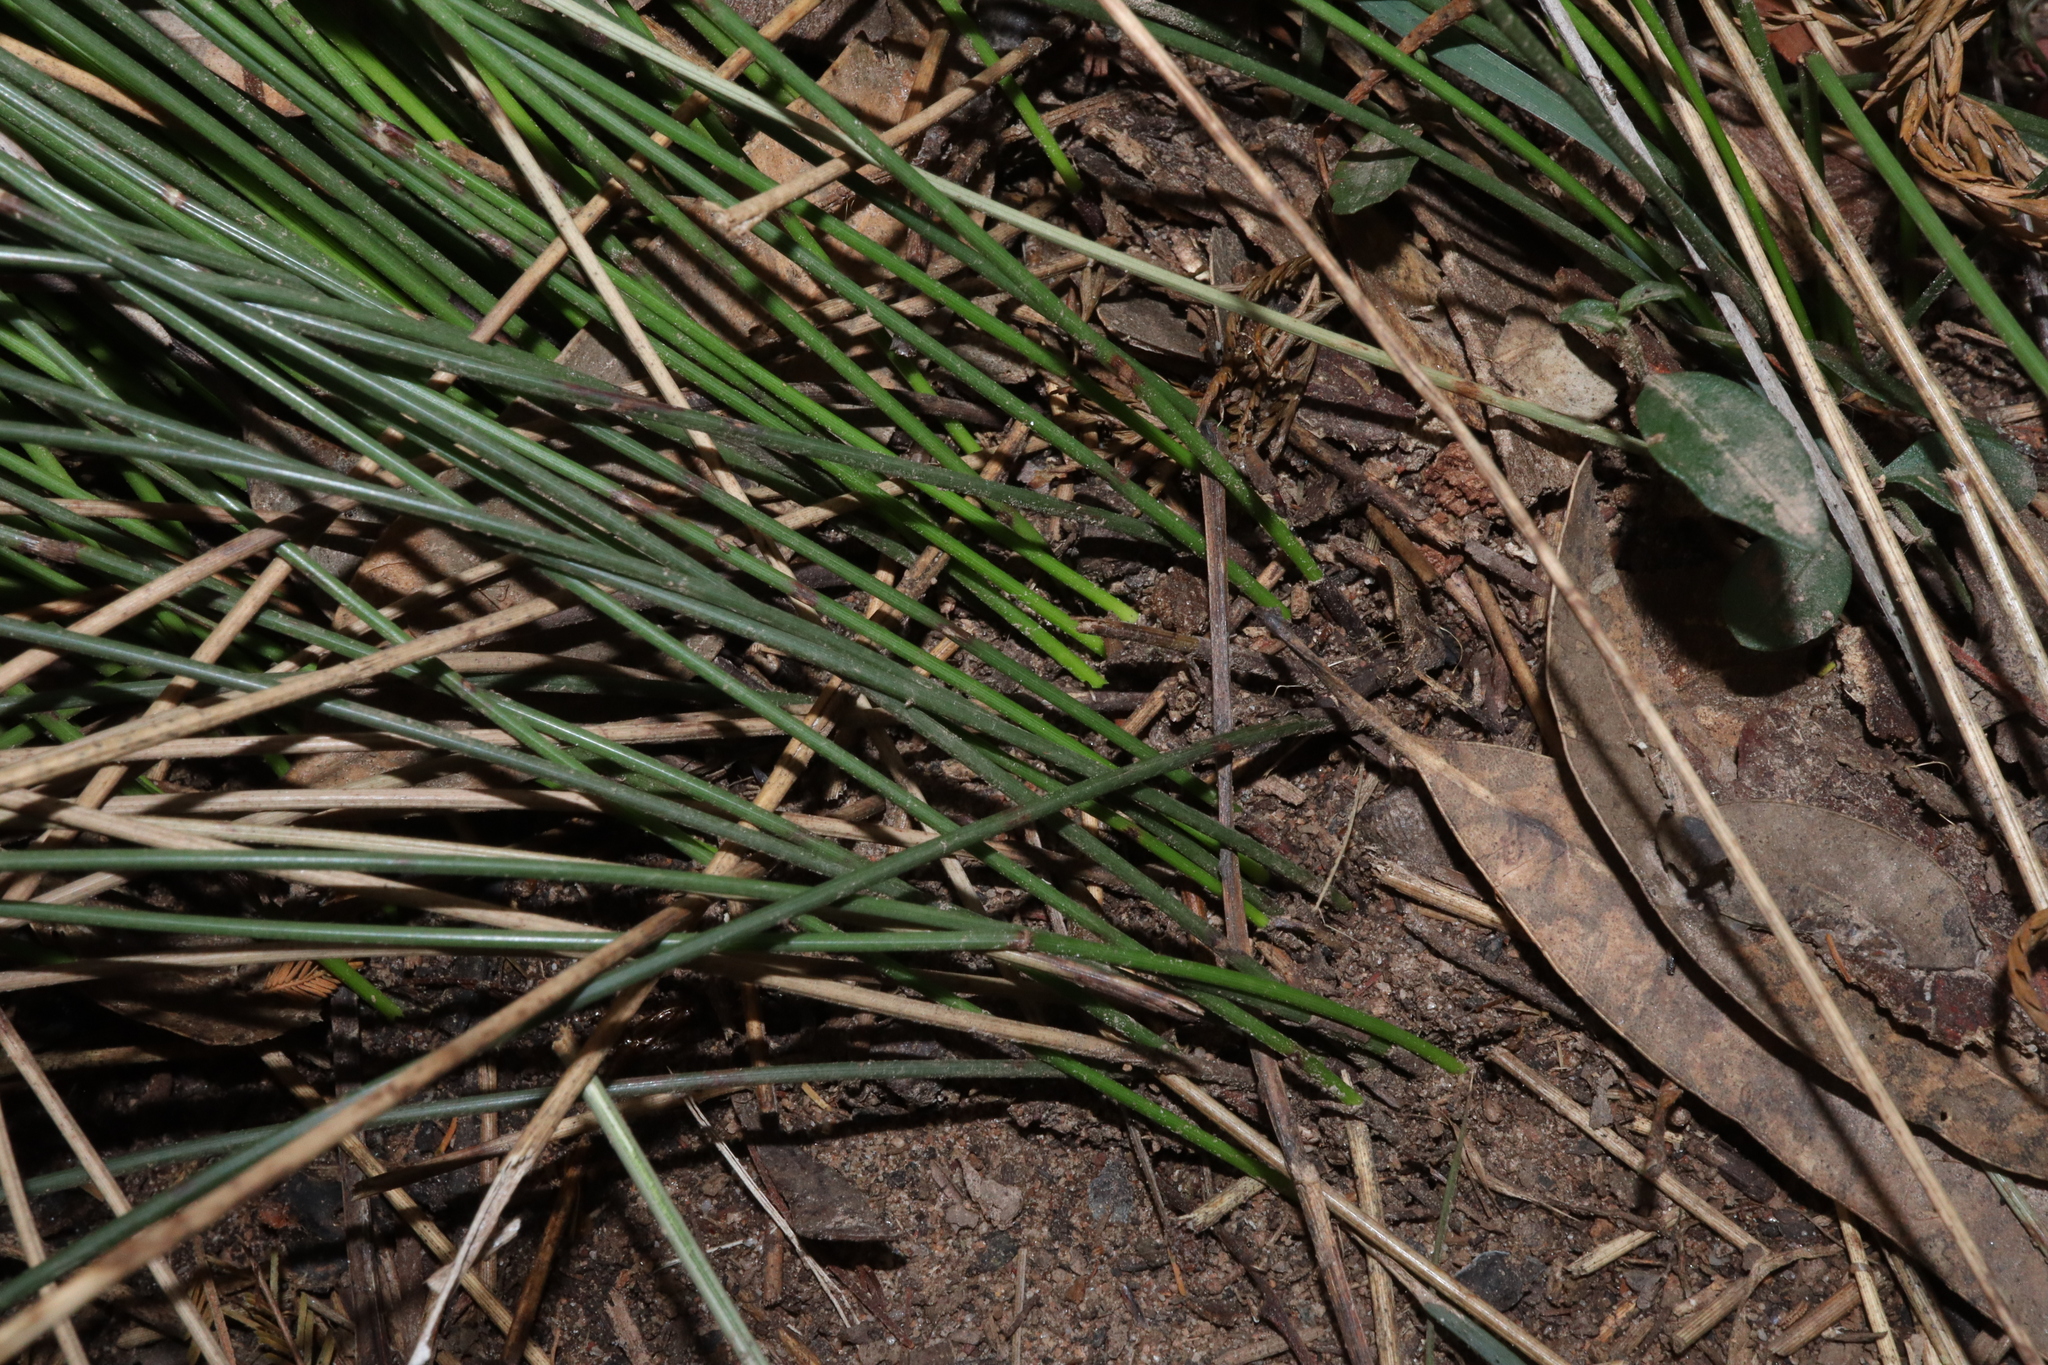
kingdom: Plantae
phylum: Tracheophyta
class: Liliopsida
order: Poales
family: Cyperaceae
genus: Schoenus
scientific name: Schoenus melanostachys
